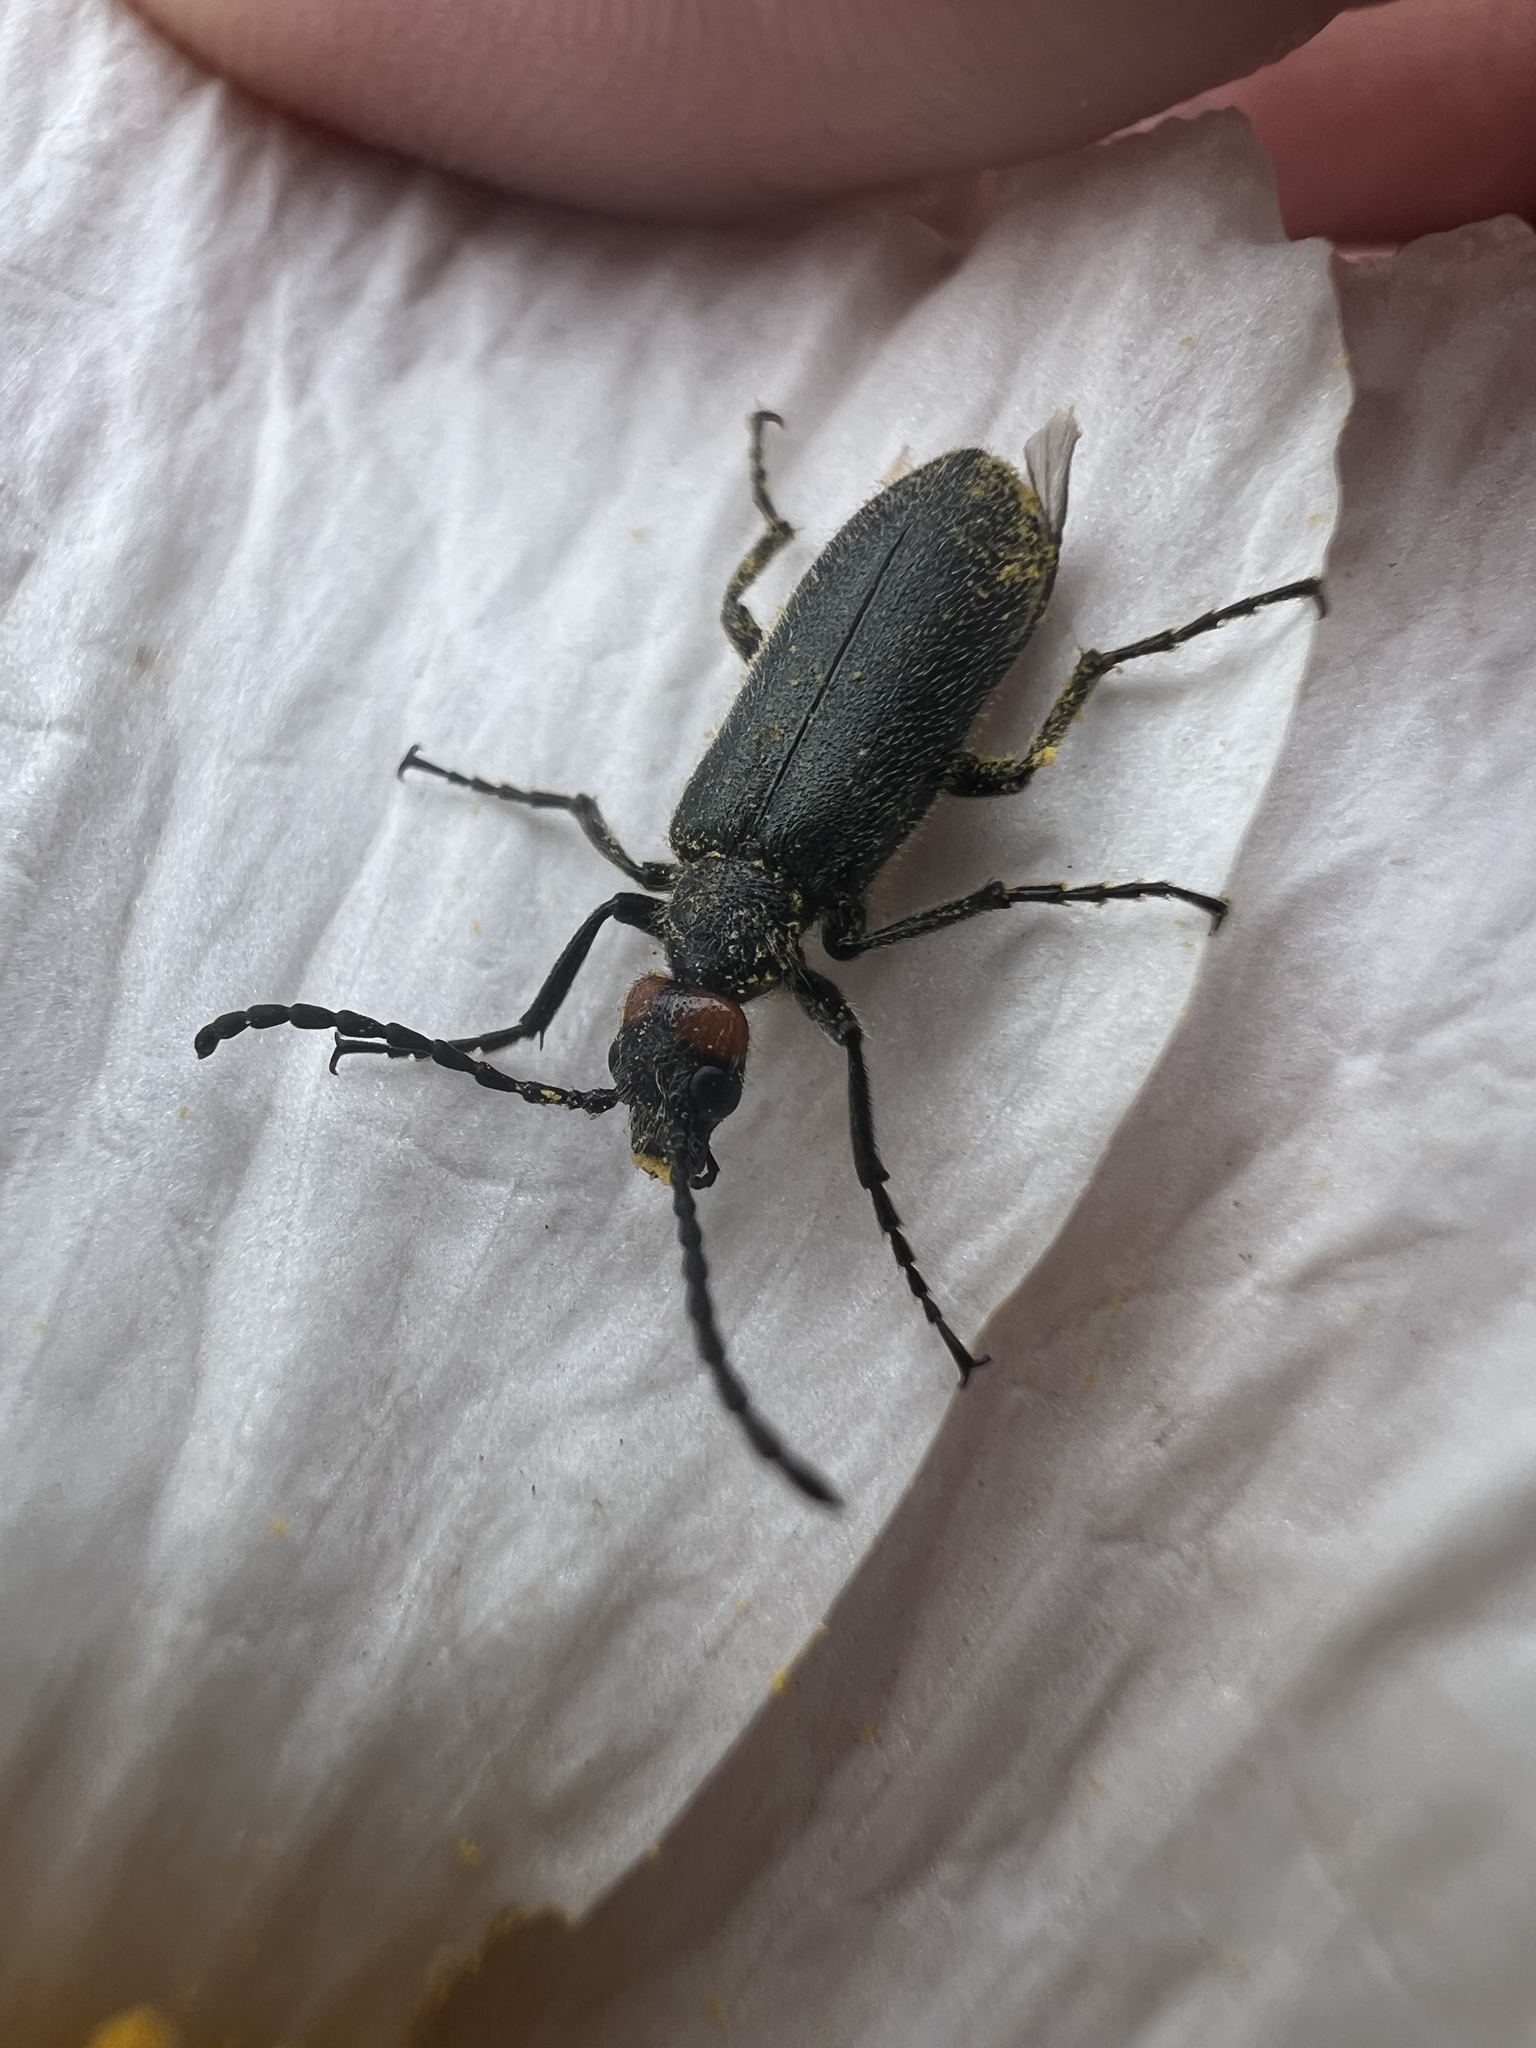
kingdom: Animalia
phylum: Arthropoda
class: Insecta
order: Coleoptera
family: Meloidae
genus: Lytta
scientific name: Lytta auriculata
